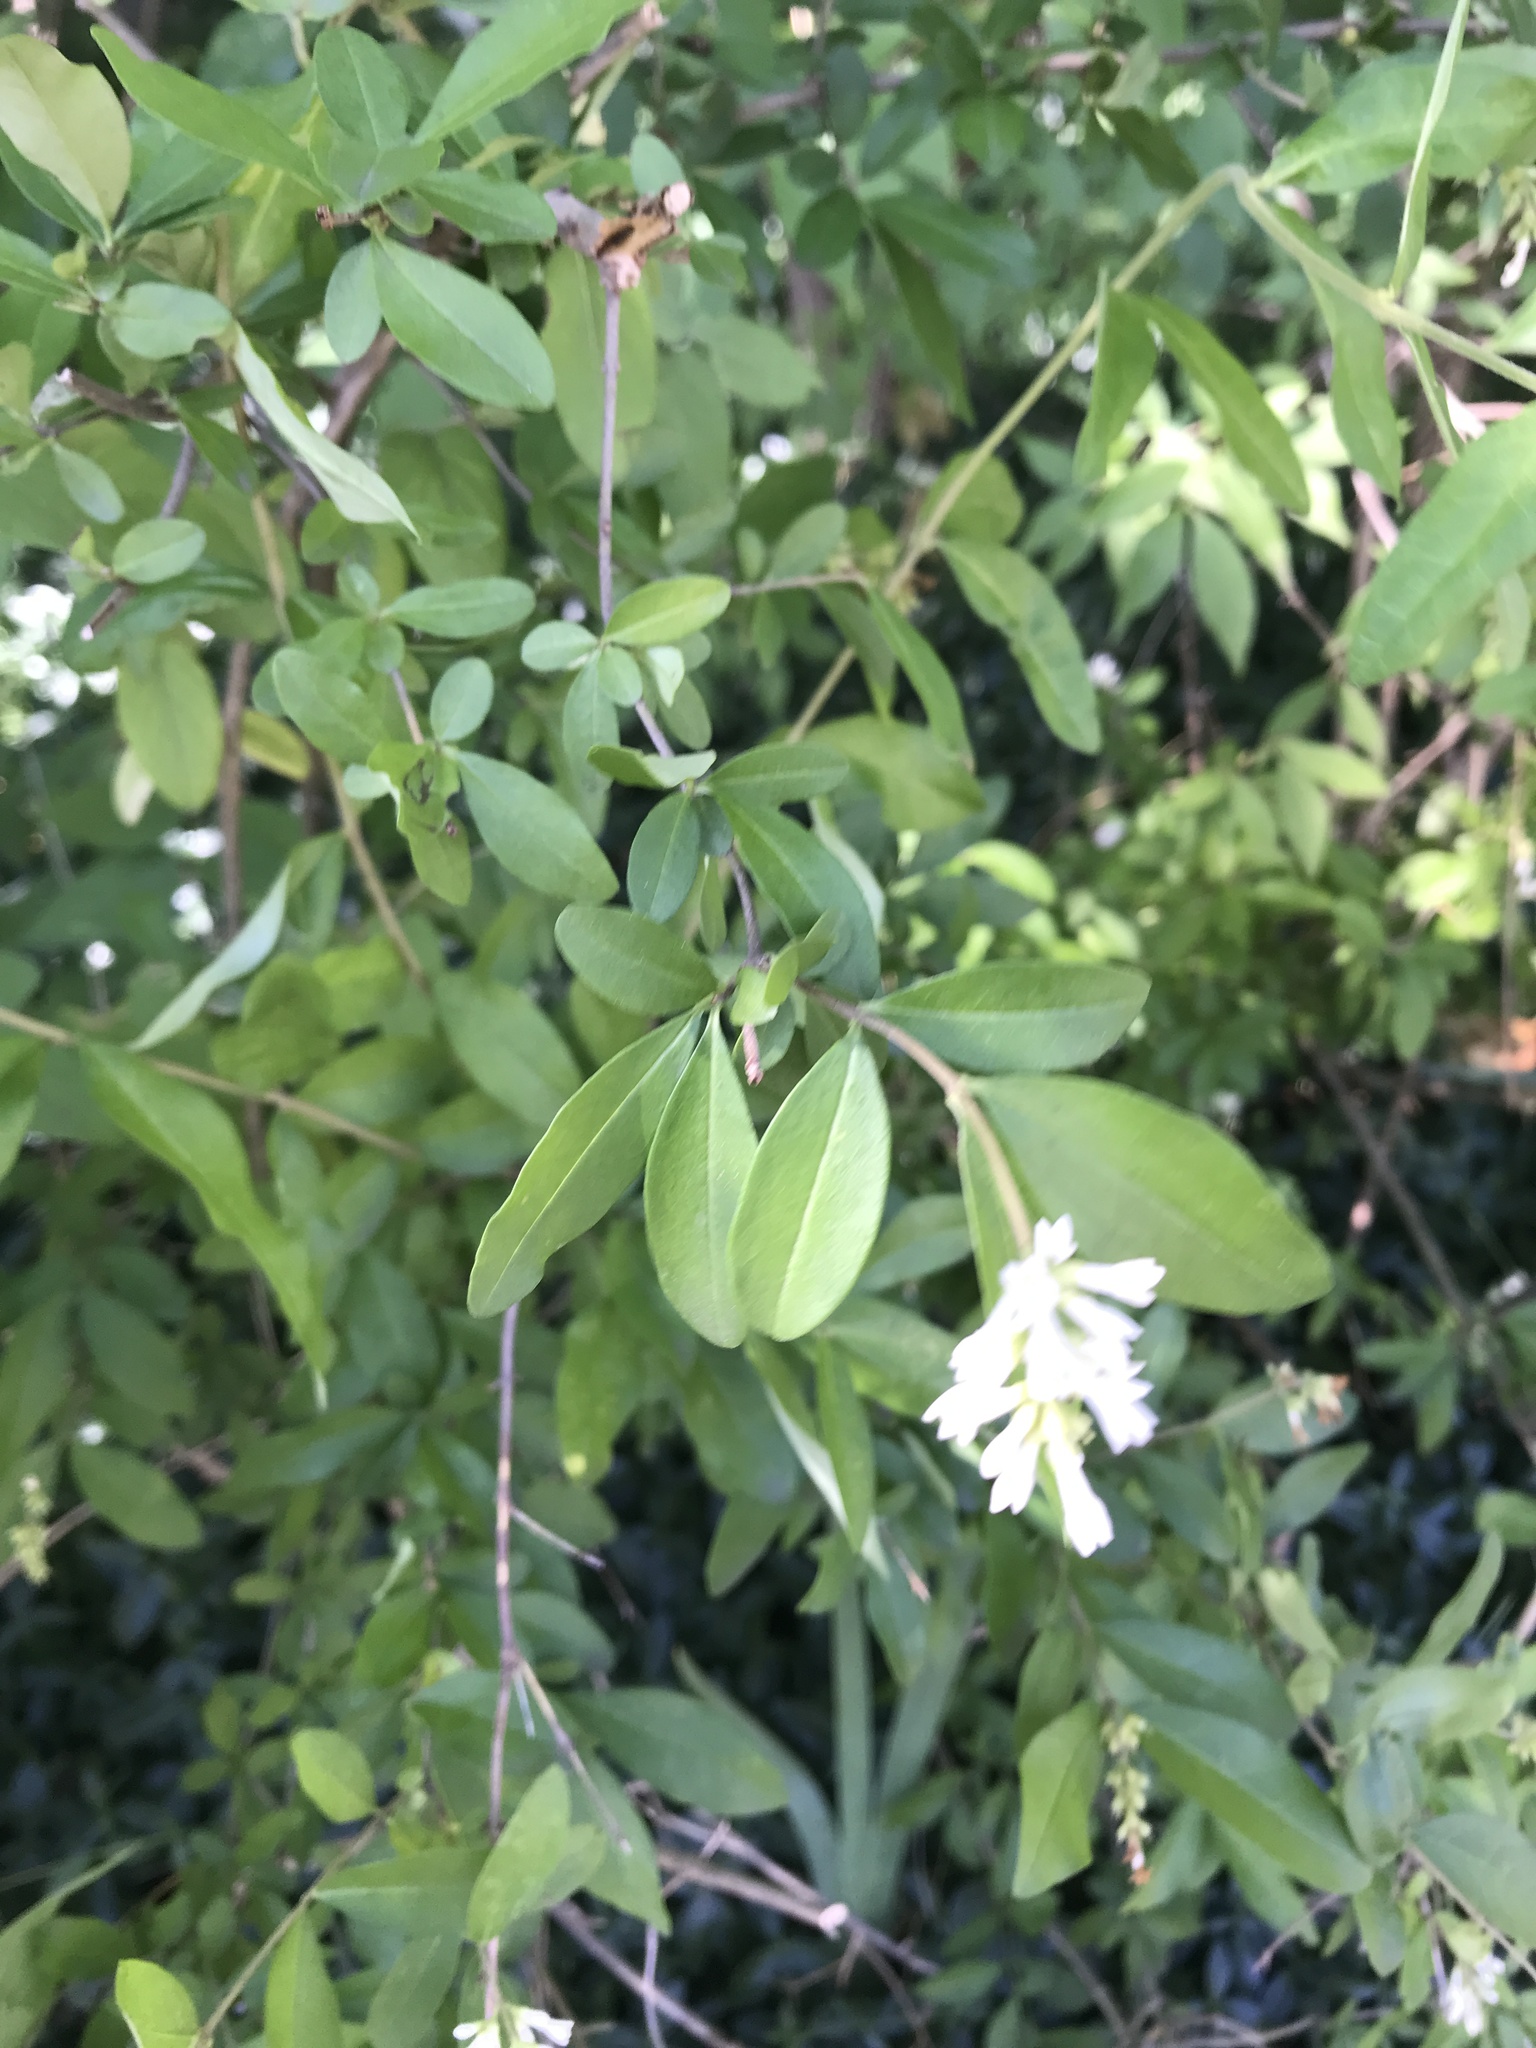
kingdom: Plantae
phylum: Tracheophyta
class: Magnoliopsida
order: Lamiales
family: Oleaceae
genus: Ligustrum
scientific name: Ligustrum obtusifolium
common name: Border privet
